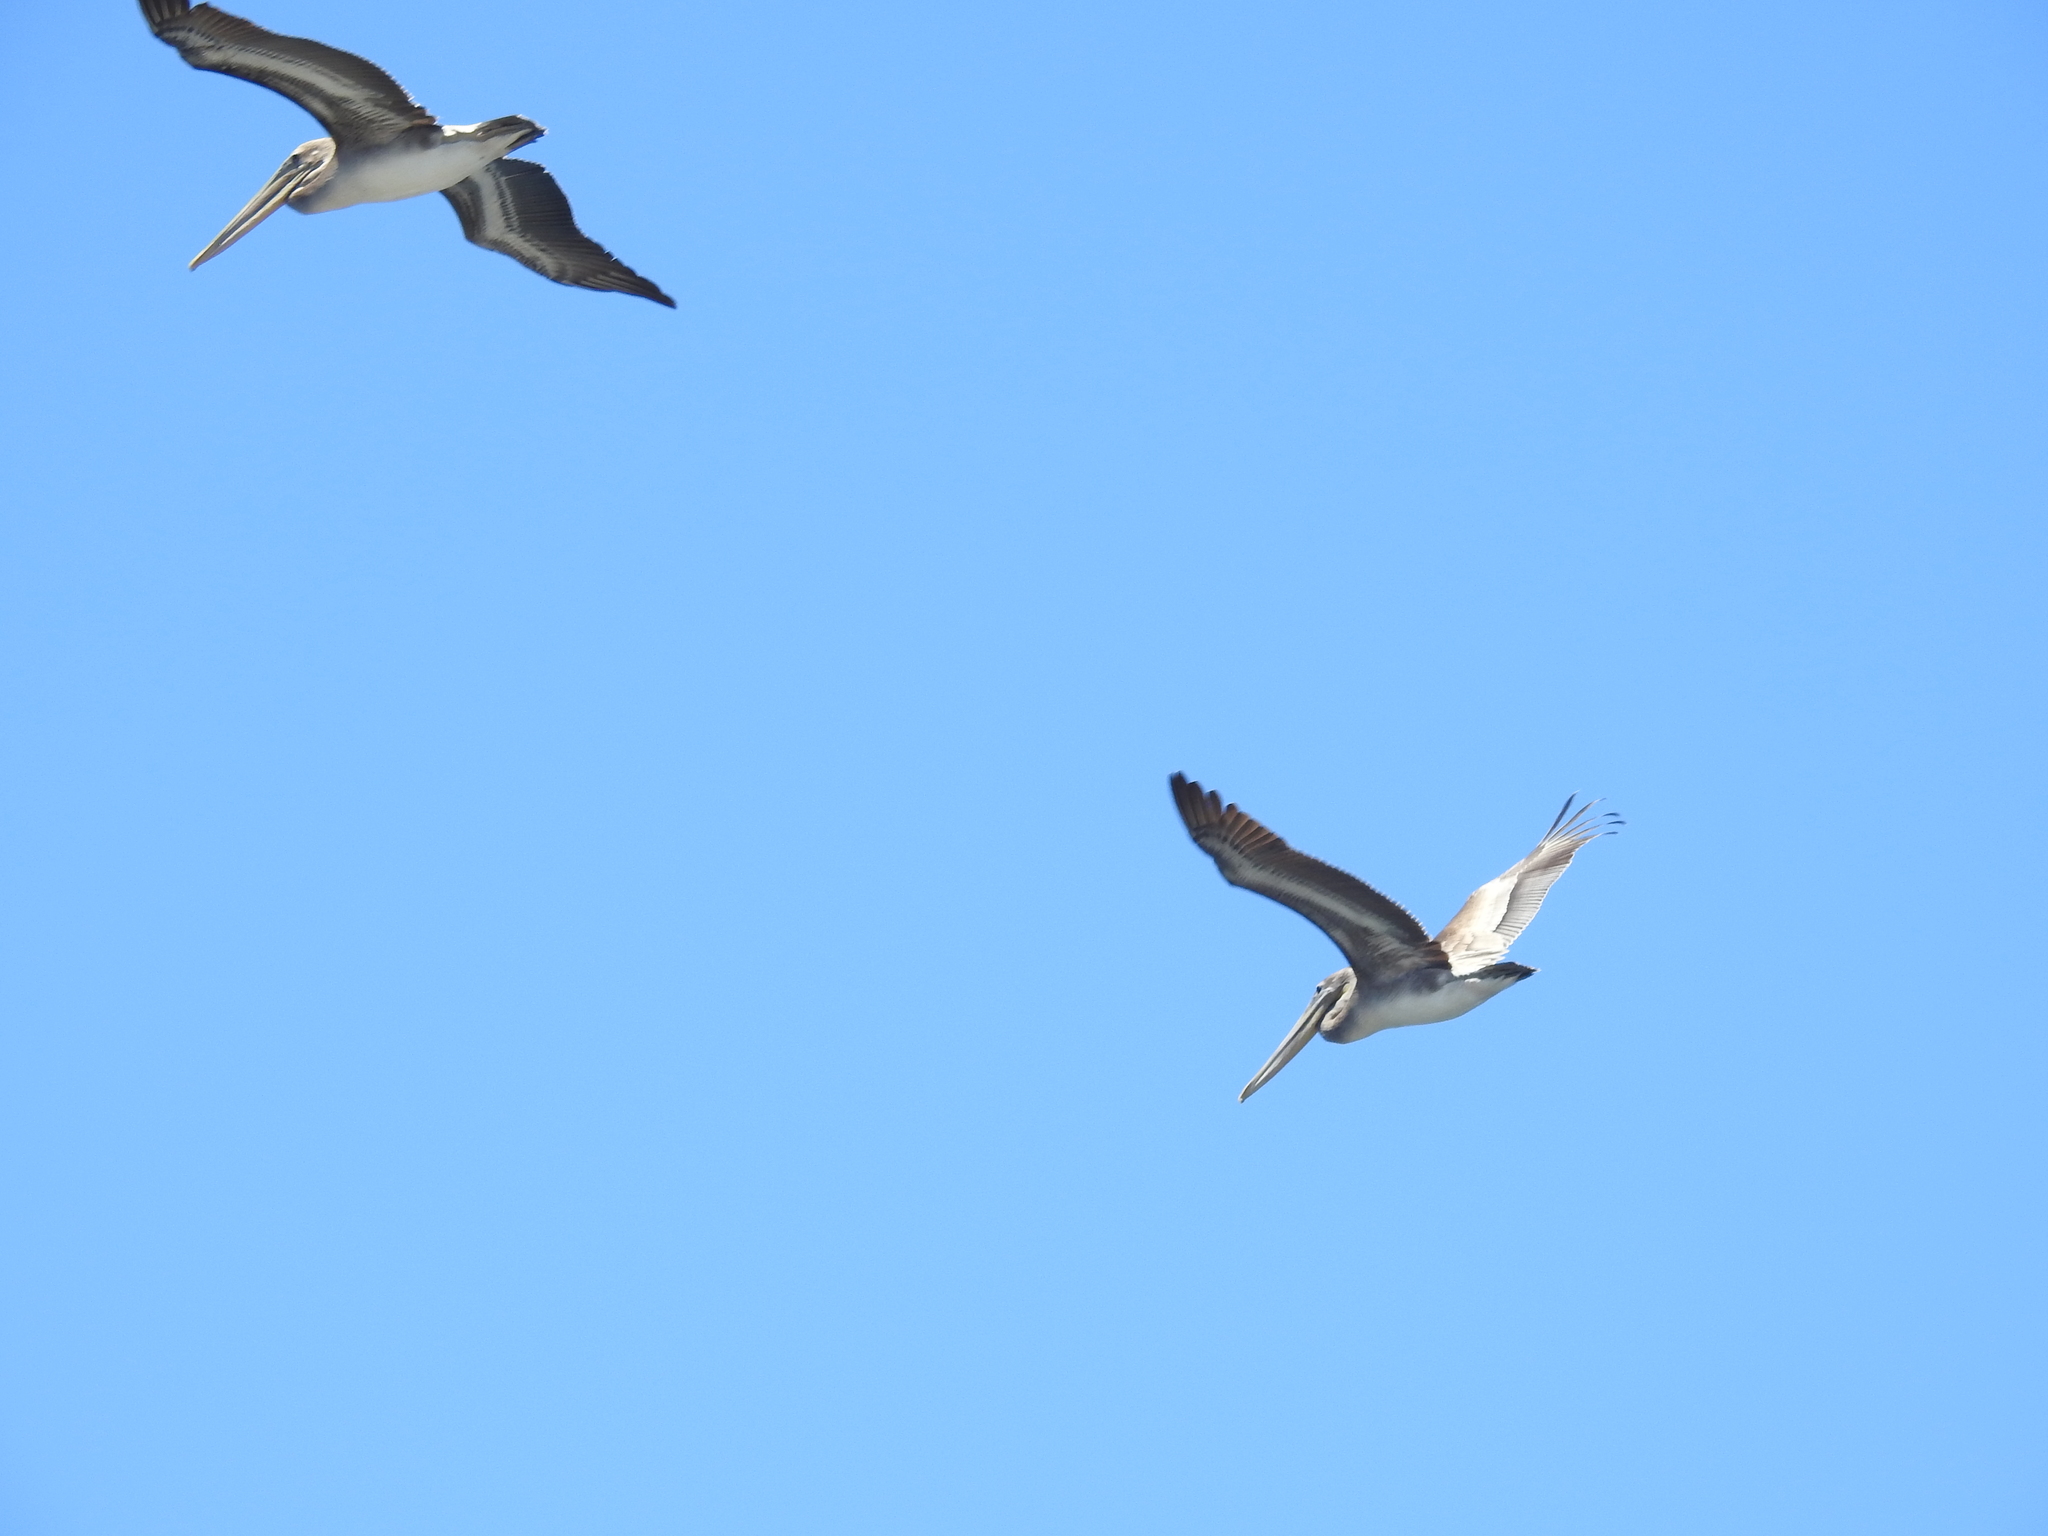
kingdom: Animalia
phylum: Chordata
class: Aves
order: Pelecaniformes
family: Pelecanidae
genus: Pelecanus
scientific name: Pelecanus occidentalis
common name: Brown pelican
